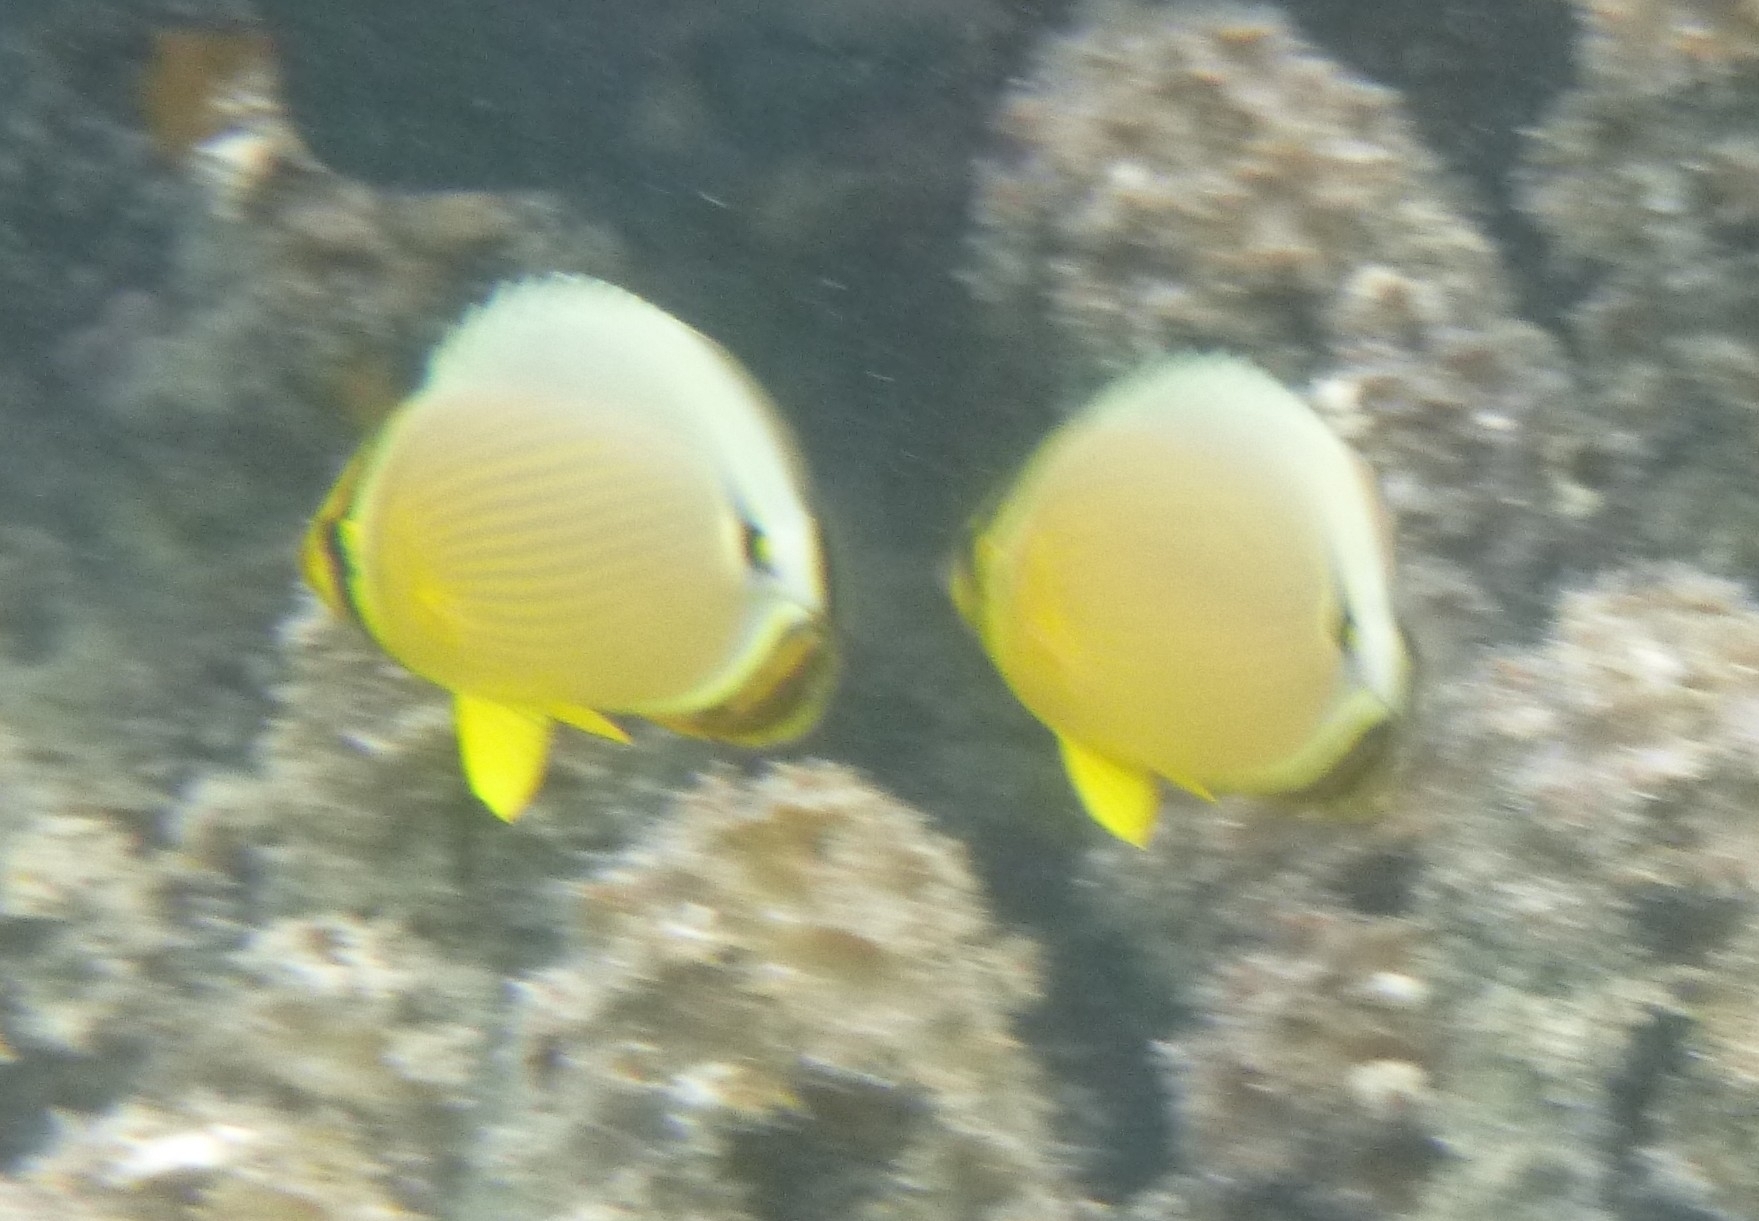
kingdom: Animalia
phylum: Chordata
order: Perciformes
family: Chaetodontidae
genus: Chaetodon
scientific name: Chaetodon lunulatus
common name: Redfin butterflyfish
